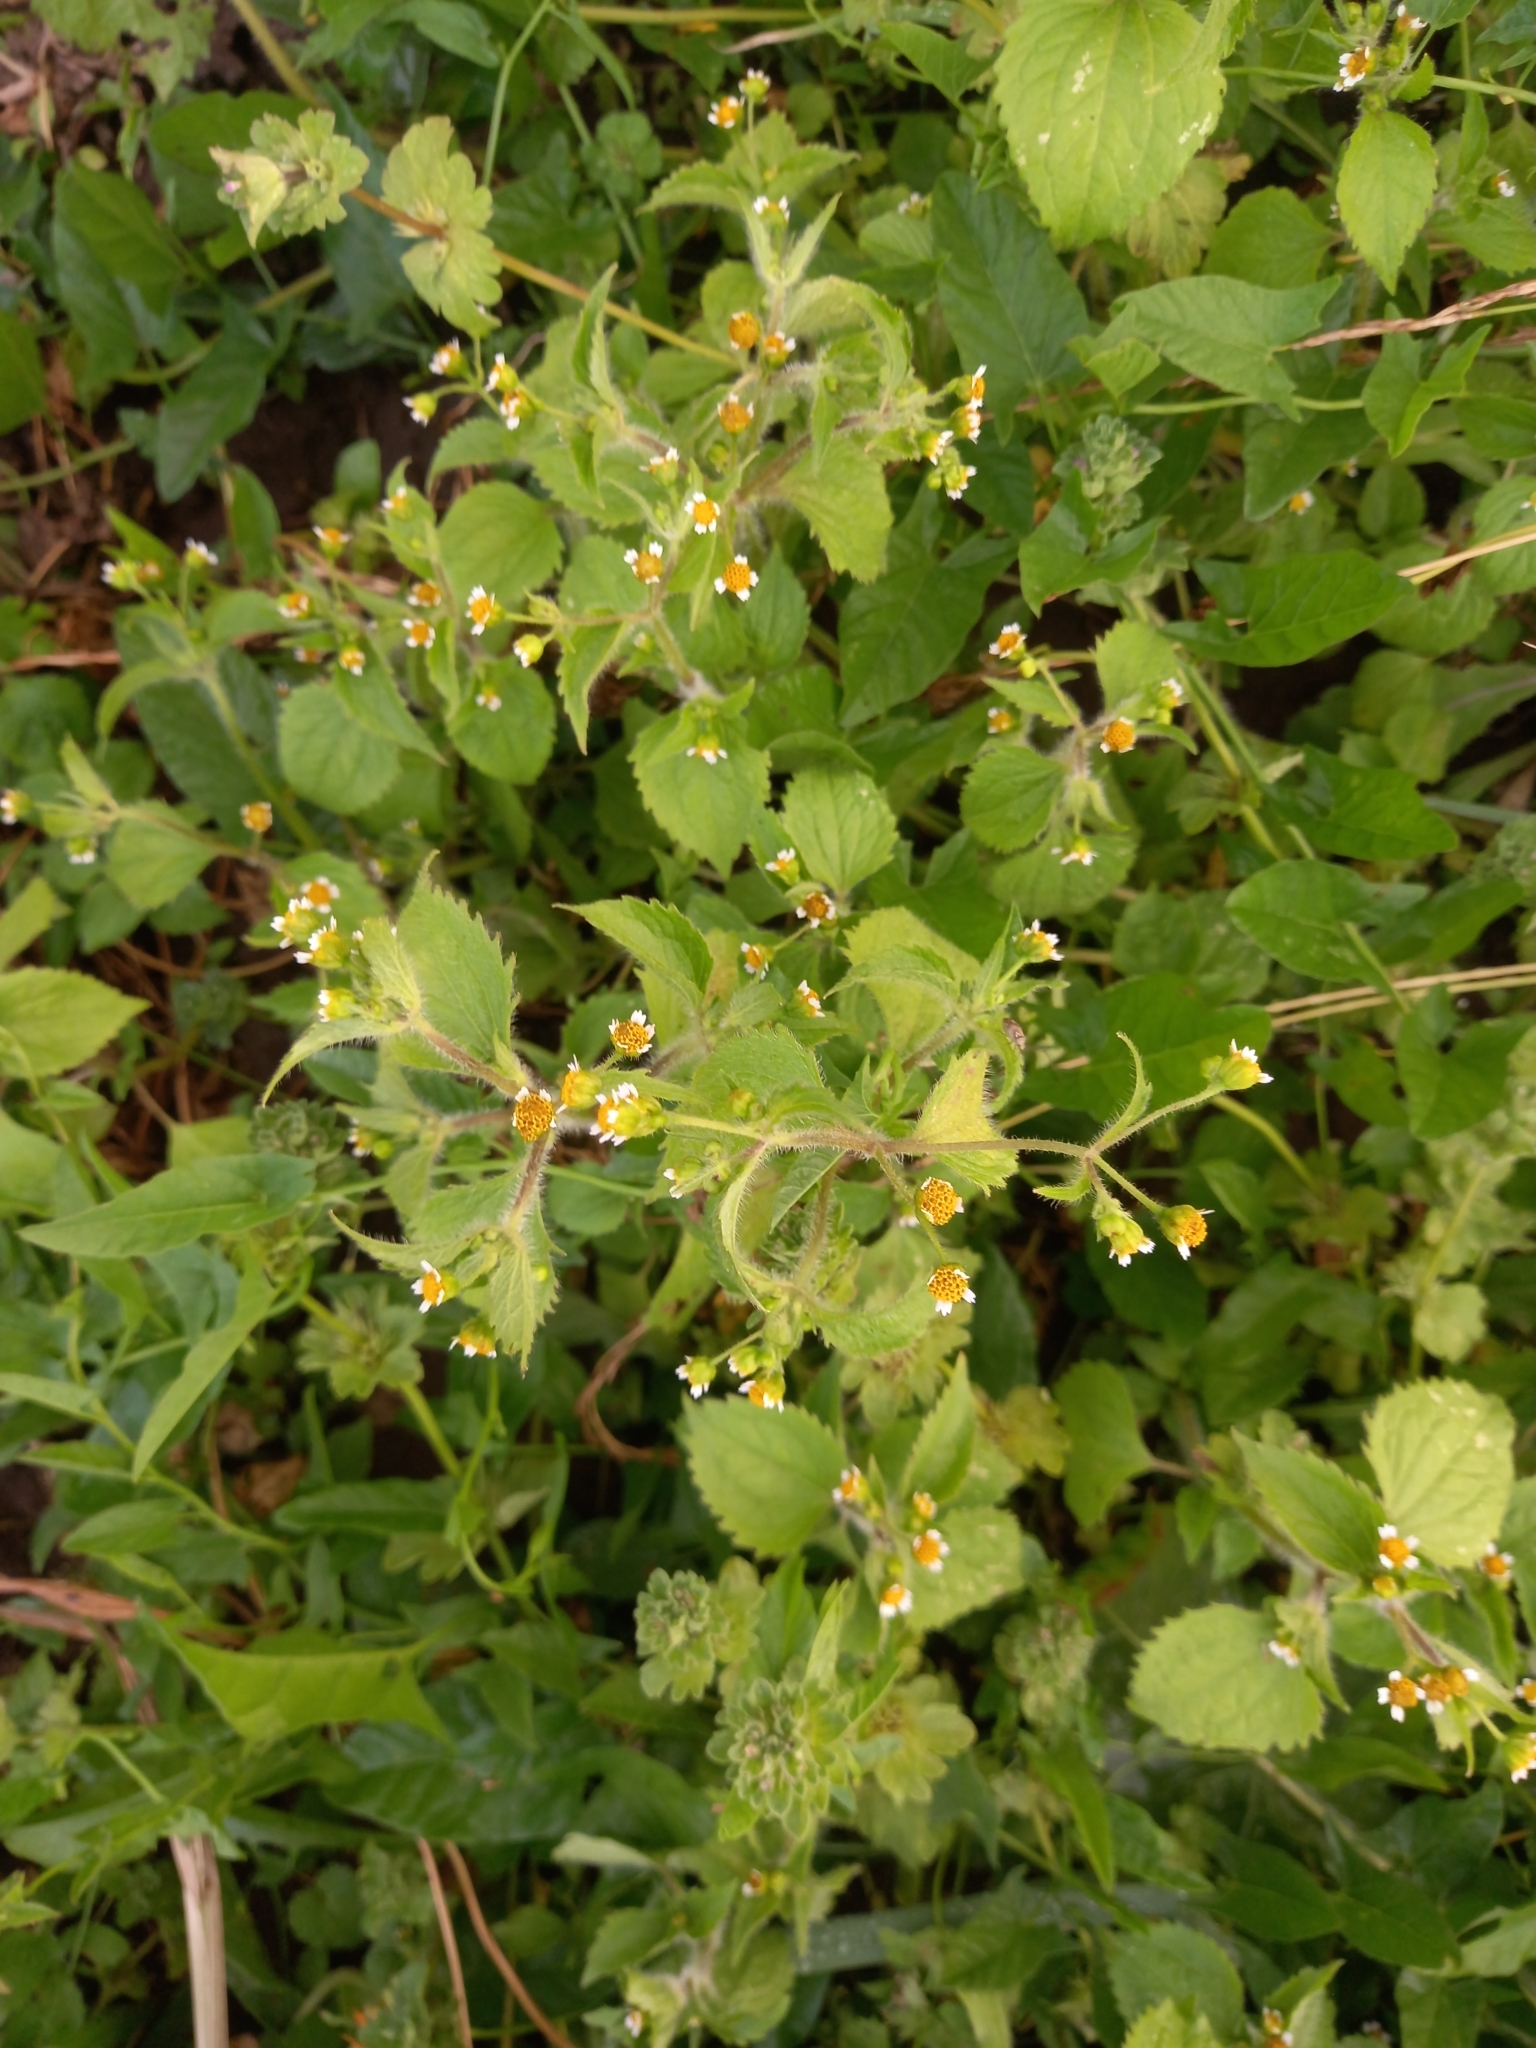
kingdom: Plantae
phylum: Tracheophyta
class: Magnoliopsida
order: Asterales
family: Asteraceae
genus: Galinsoga
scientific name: Galinsoga quadriradiata
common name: Shaggy soldier
